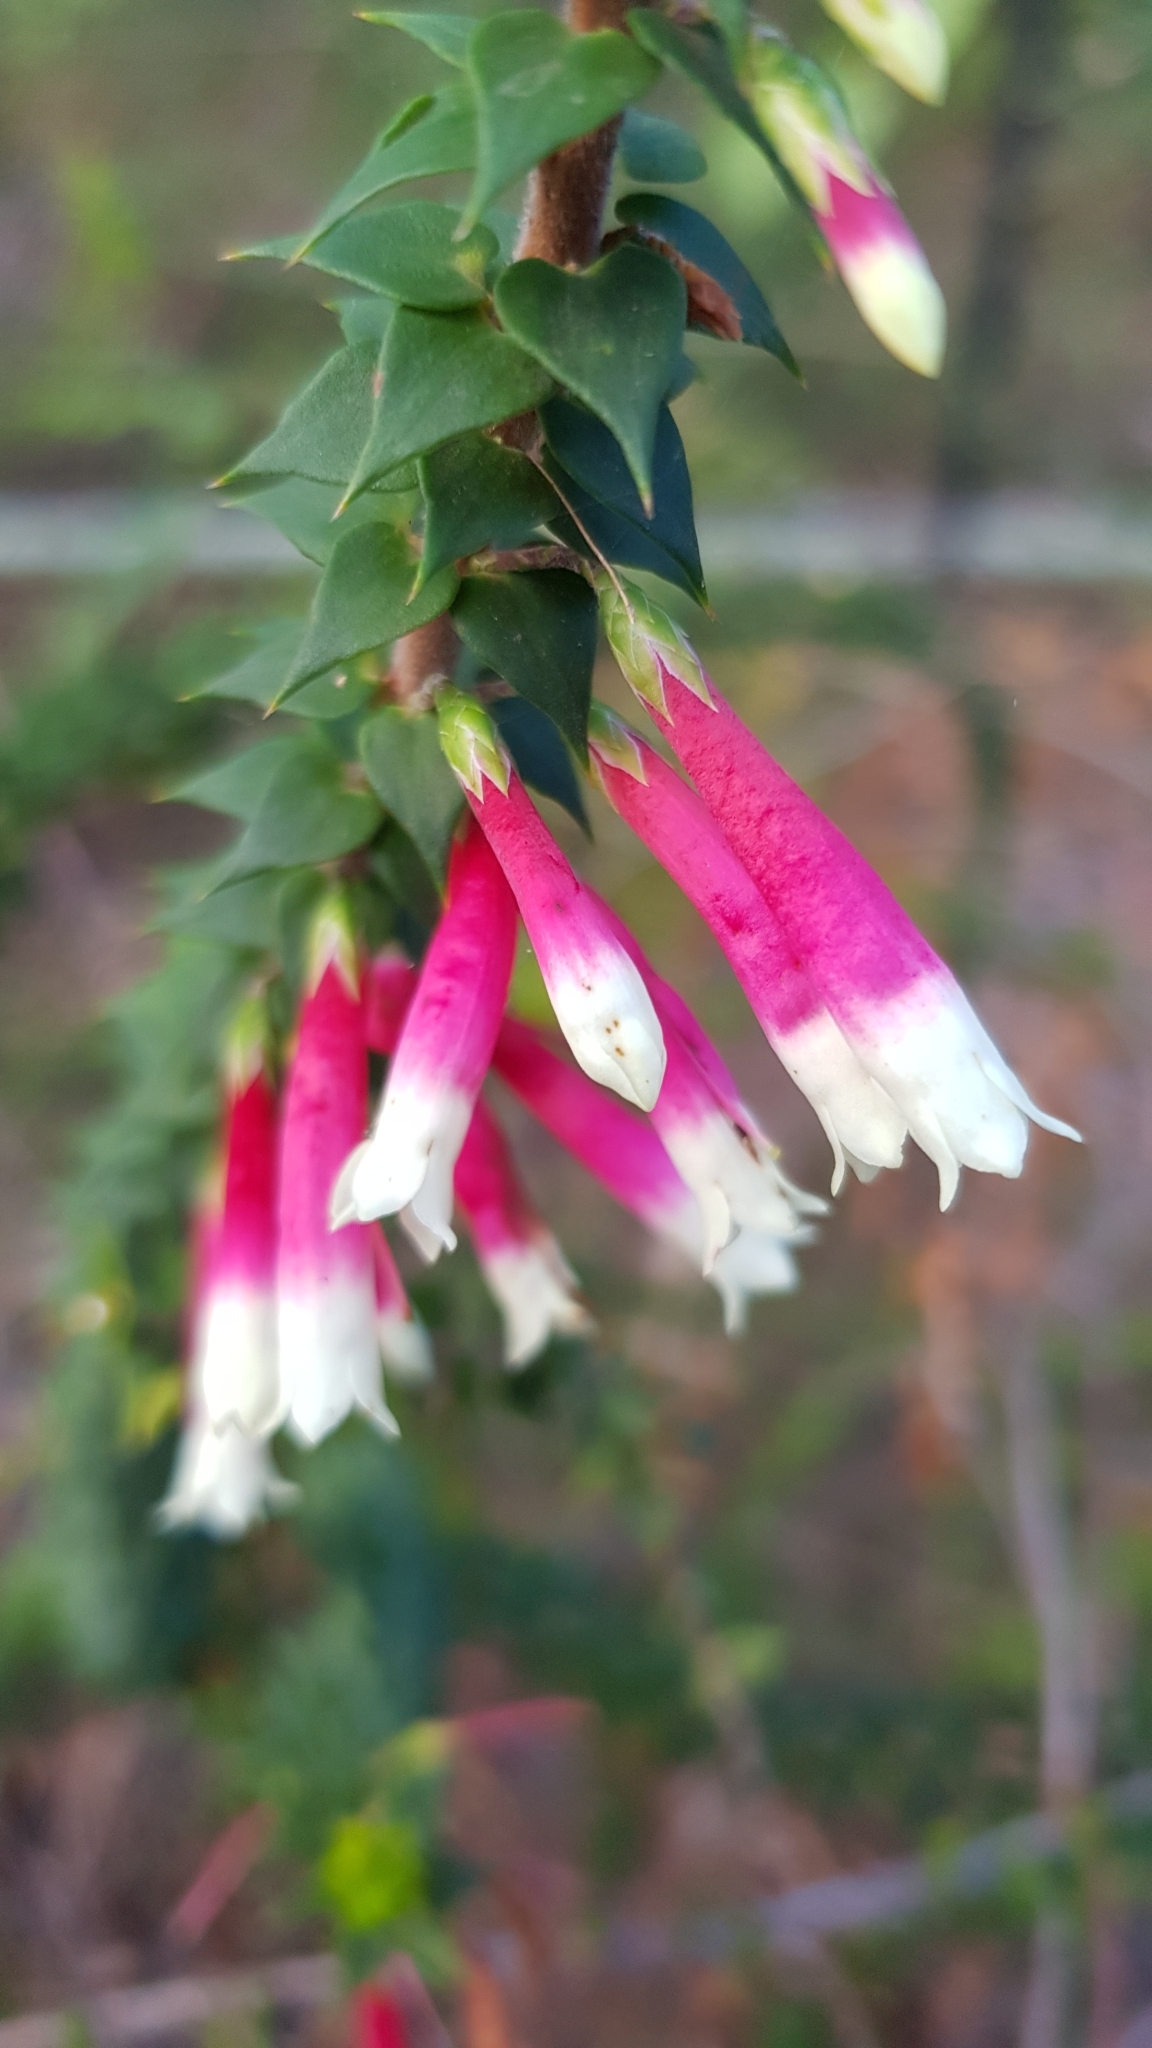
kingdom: Plantae
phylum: Tracheophyta
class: Magnoliopsida
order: Ericales
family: Ericaceae
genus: Epacris
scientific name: Epacris longiflora
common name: Fuchsia-heath
